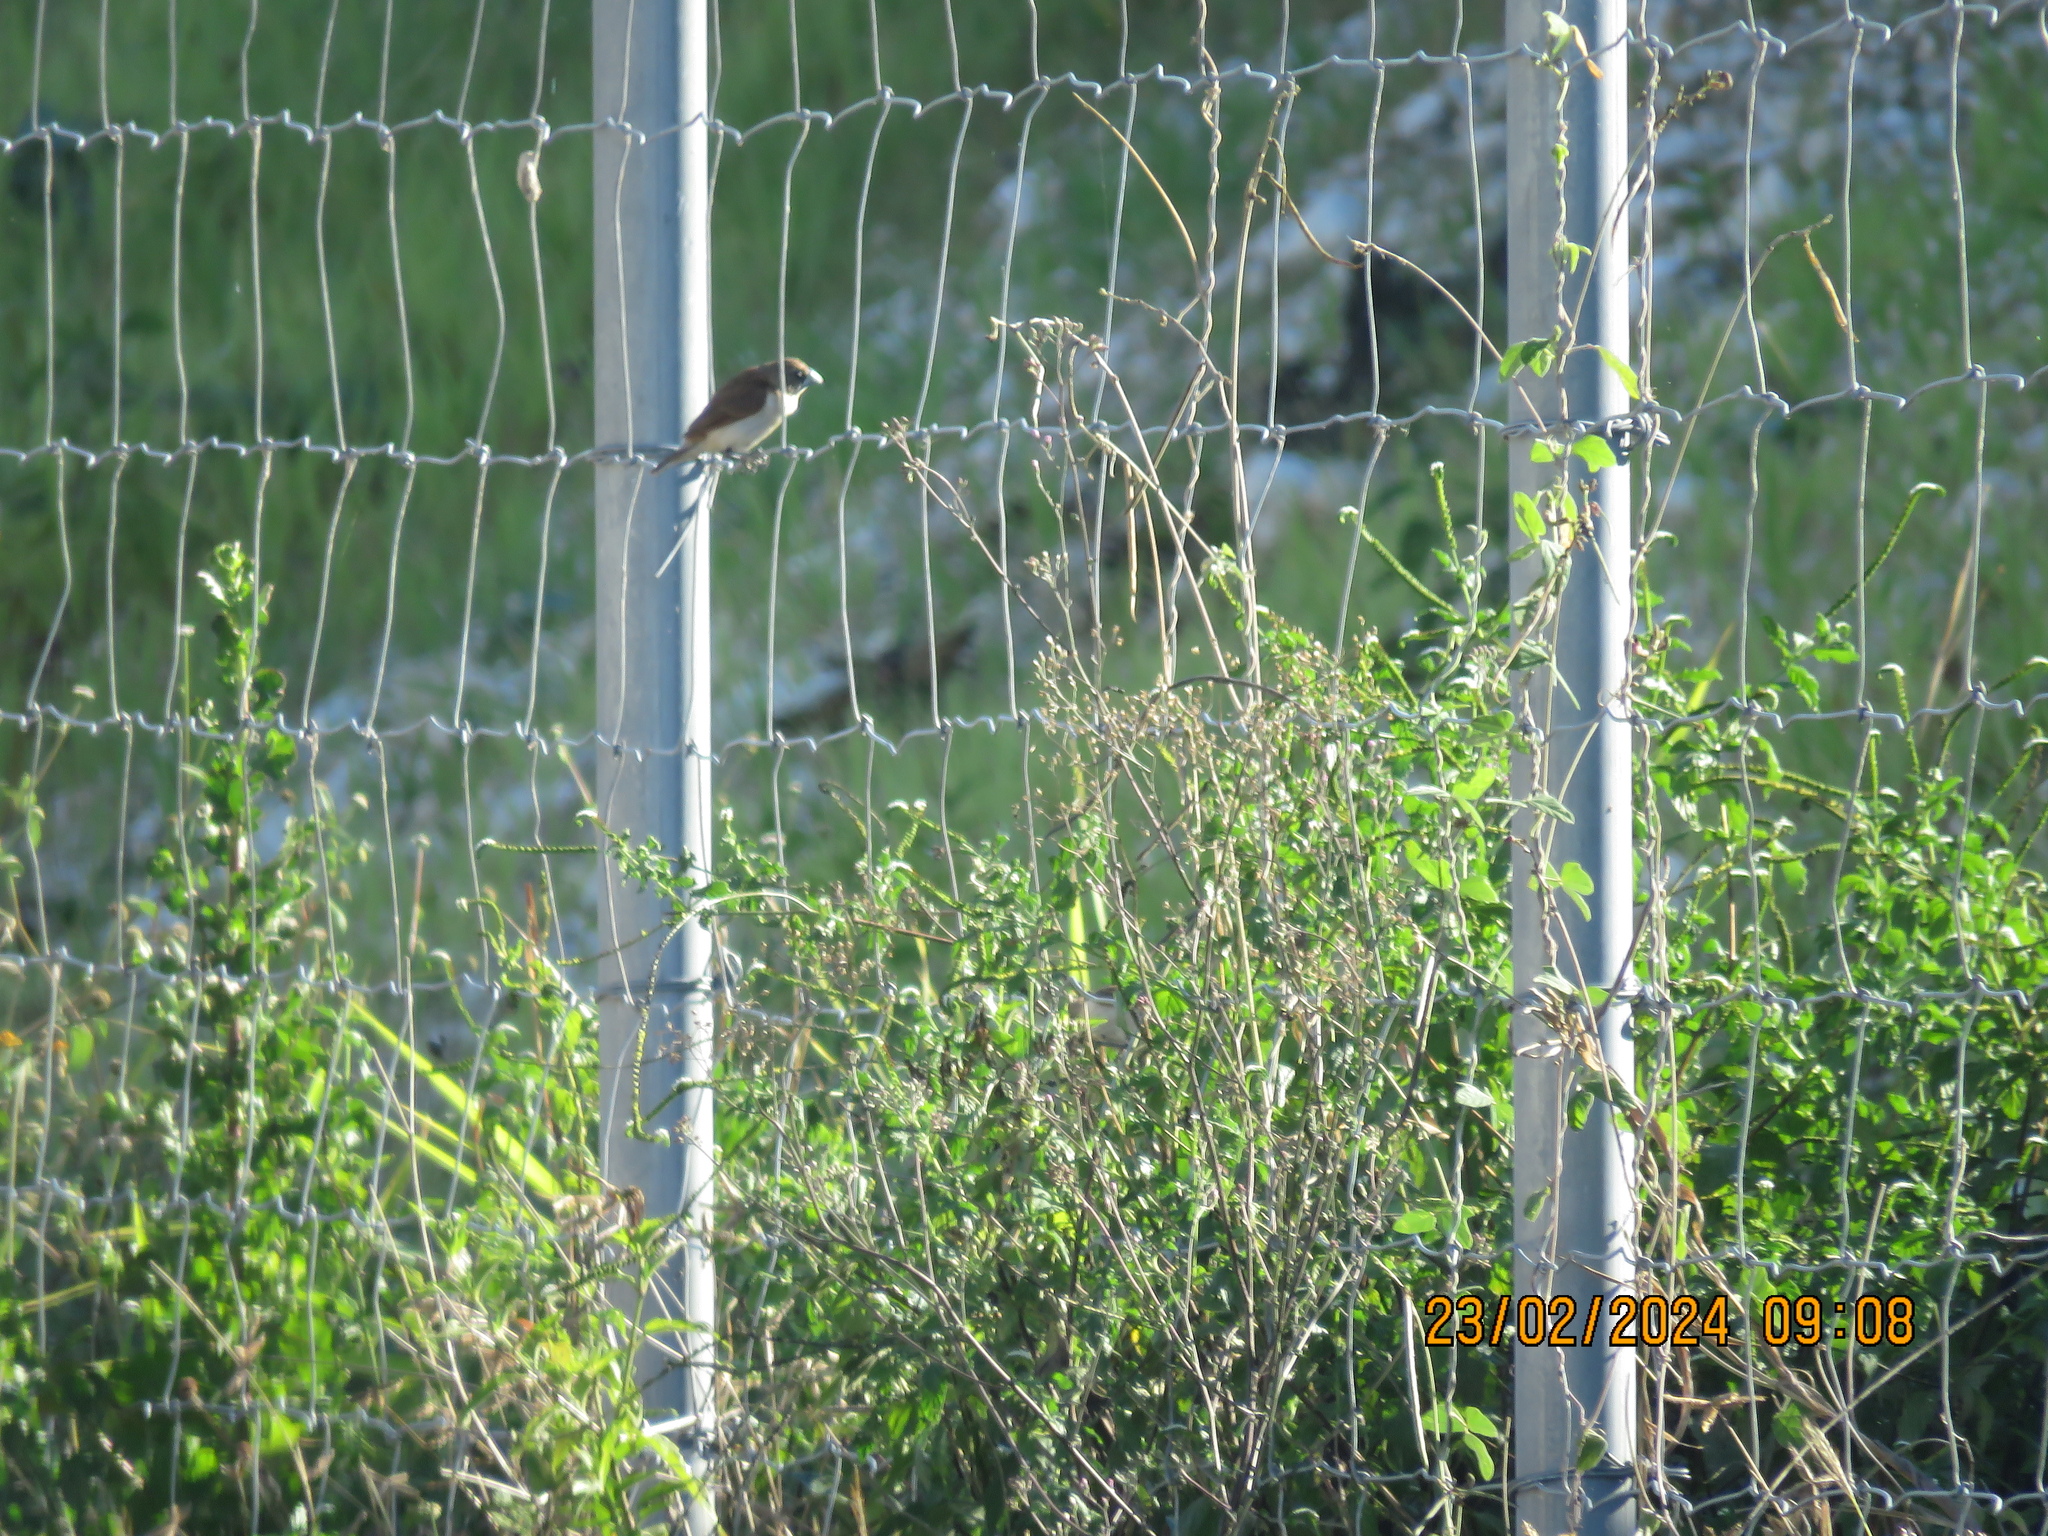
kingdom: Animalia
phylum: Chordata
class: Aves
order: Passeriformes
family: Estrildidae
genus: Lonchura
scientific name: Lonchura malacca
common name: Tricolored munia
